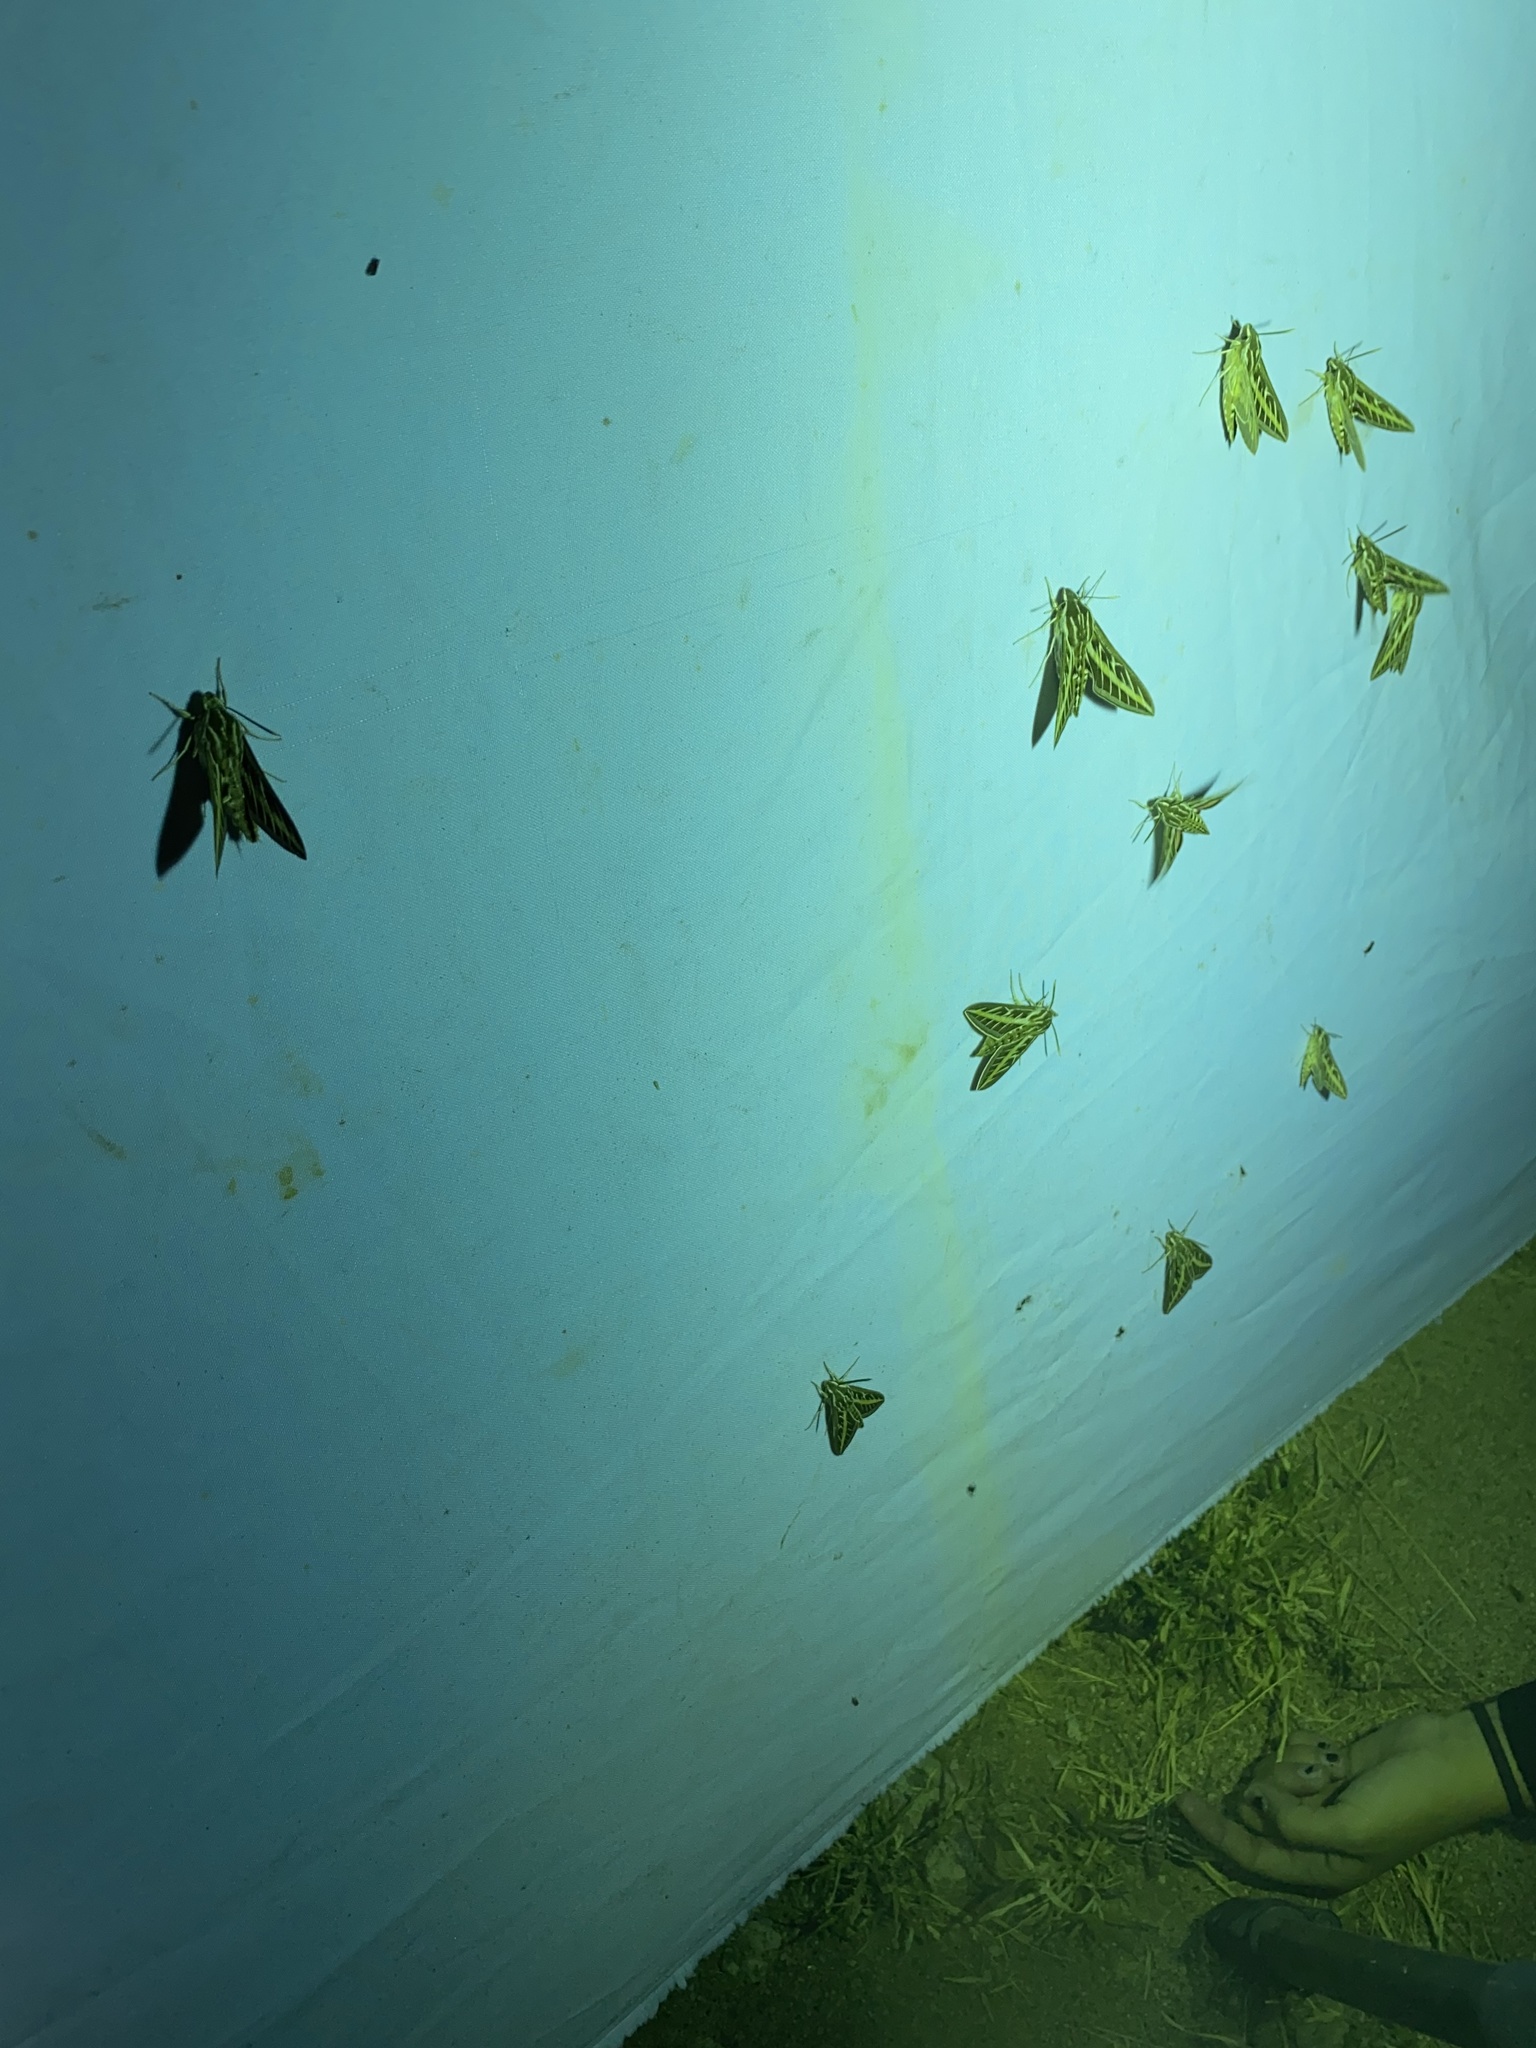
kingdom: Animalia
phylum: Arthropoda
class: Insecta
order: Lepidoptera
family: Sphingidae
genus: Hyles
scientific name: Hyles lineata
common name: White-lined sphinx
